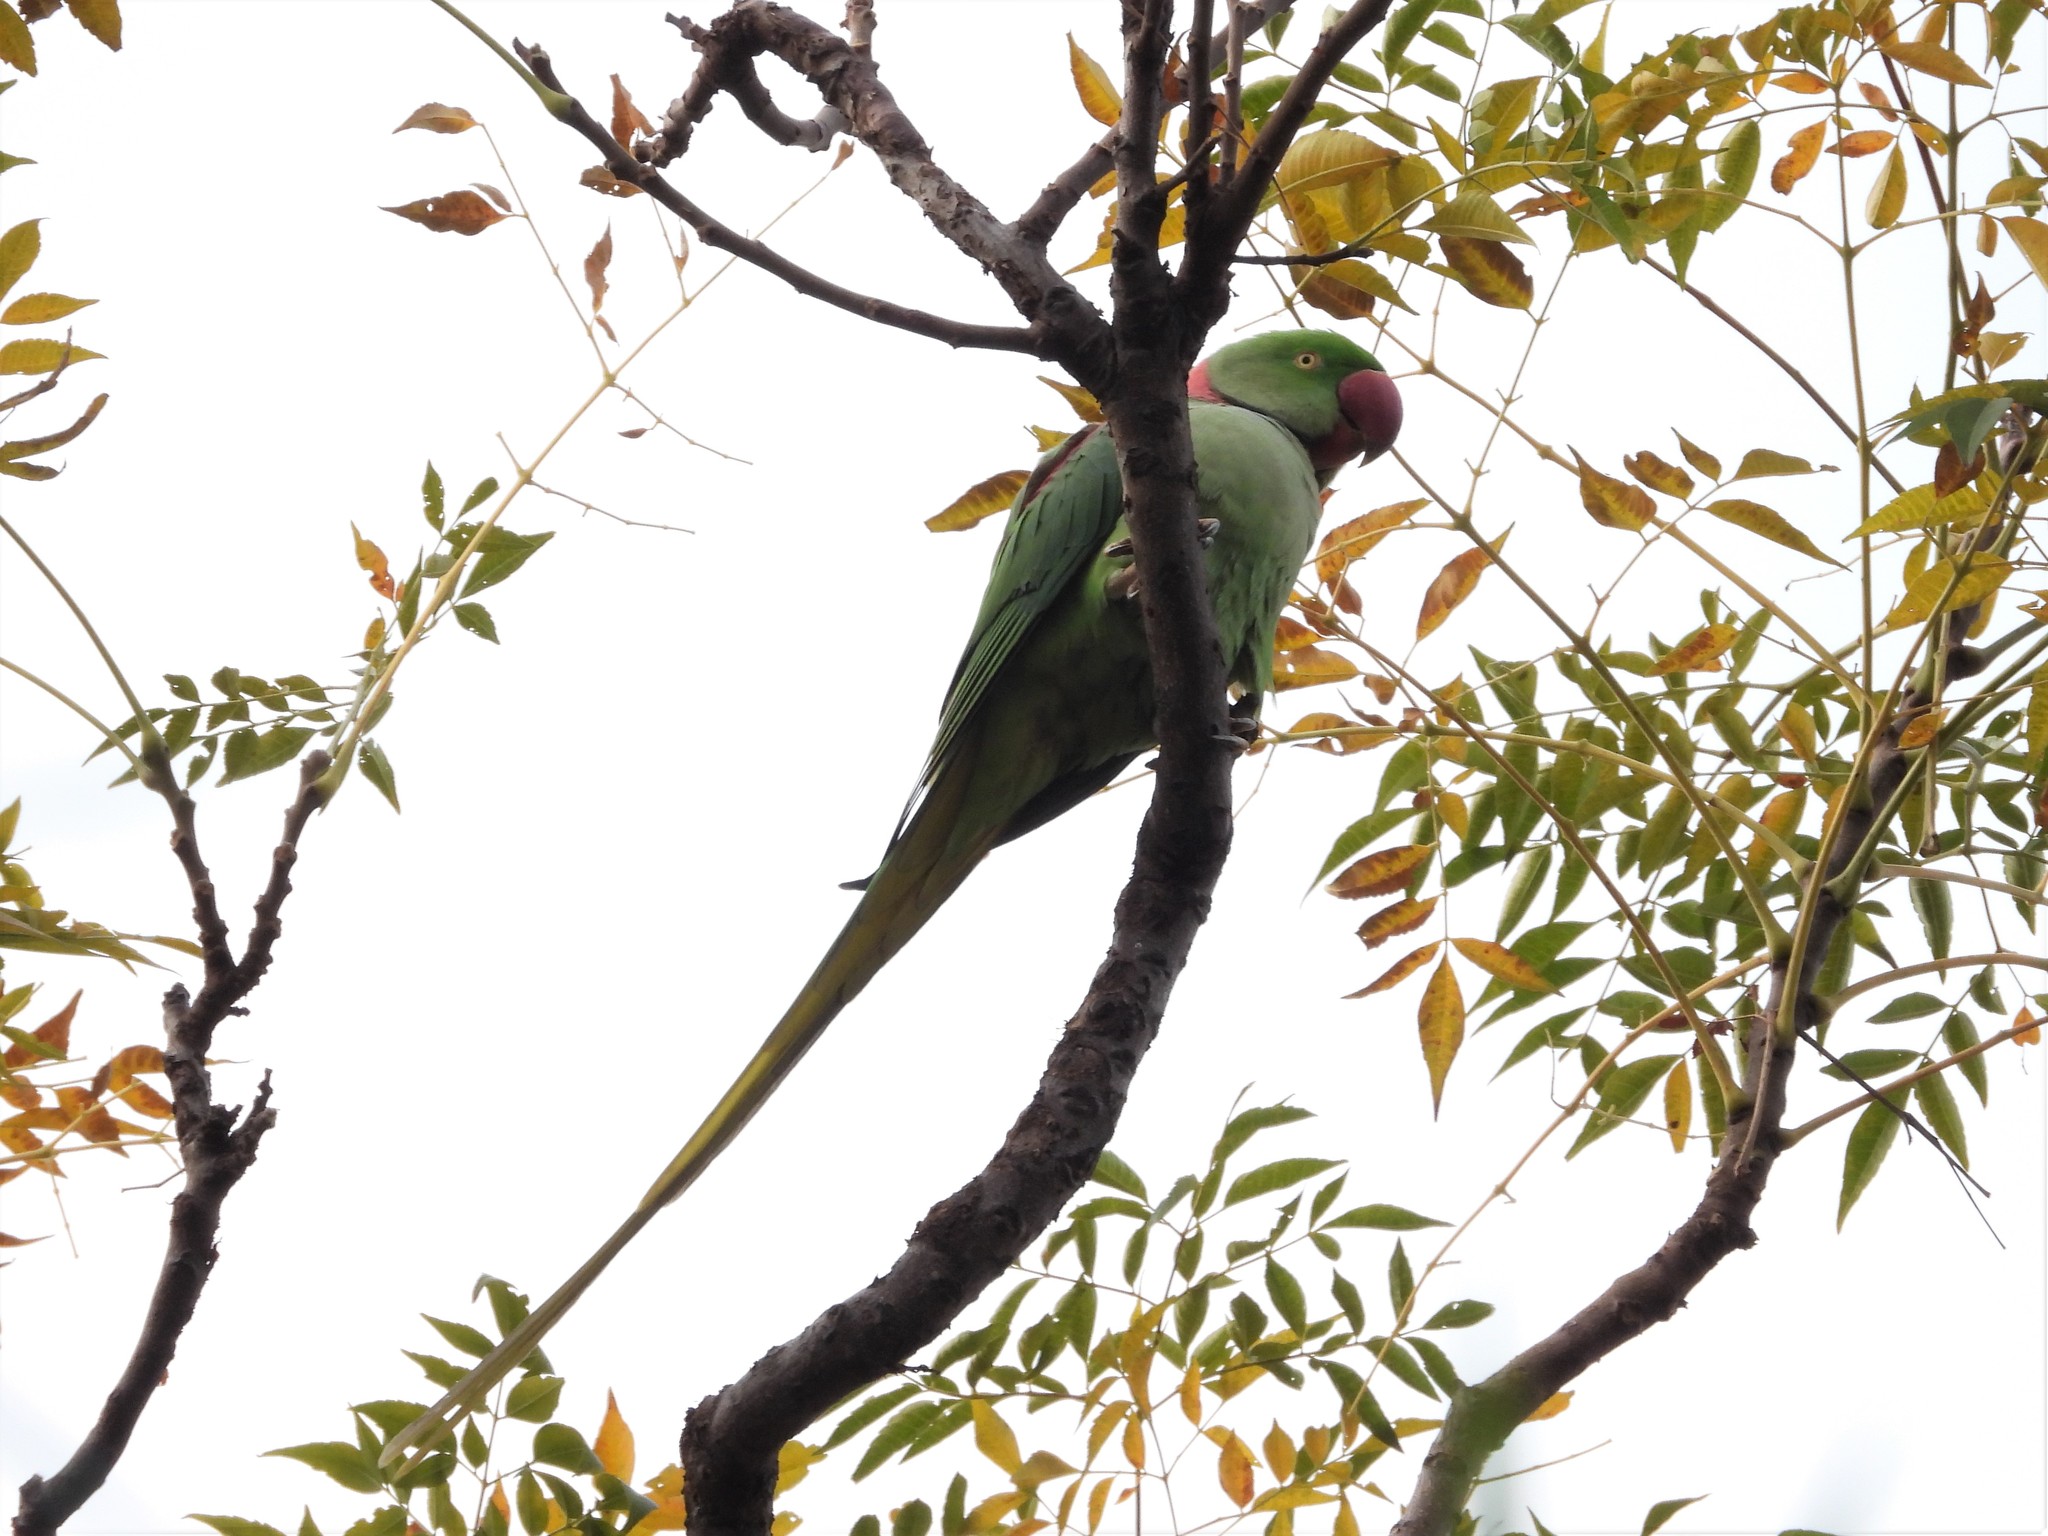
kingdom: Animalia
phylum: Chordata
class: Aves
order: Psittaciformes
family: Psittacidae
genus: Psittacula
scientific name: Psittacula eupatria
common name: Alexandrine parakeet
